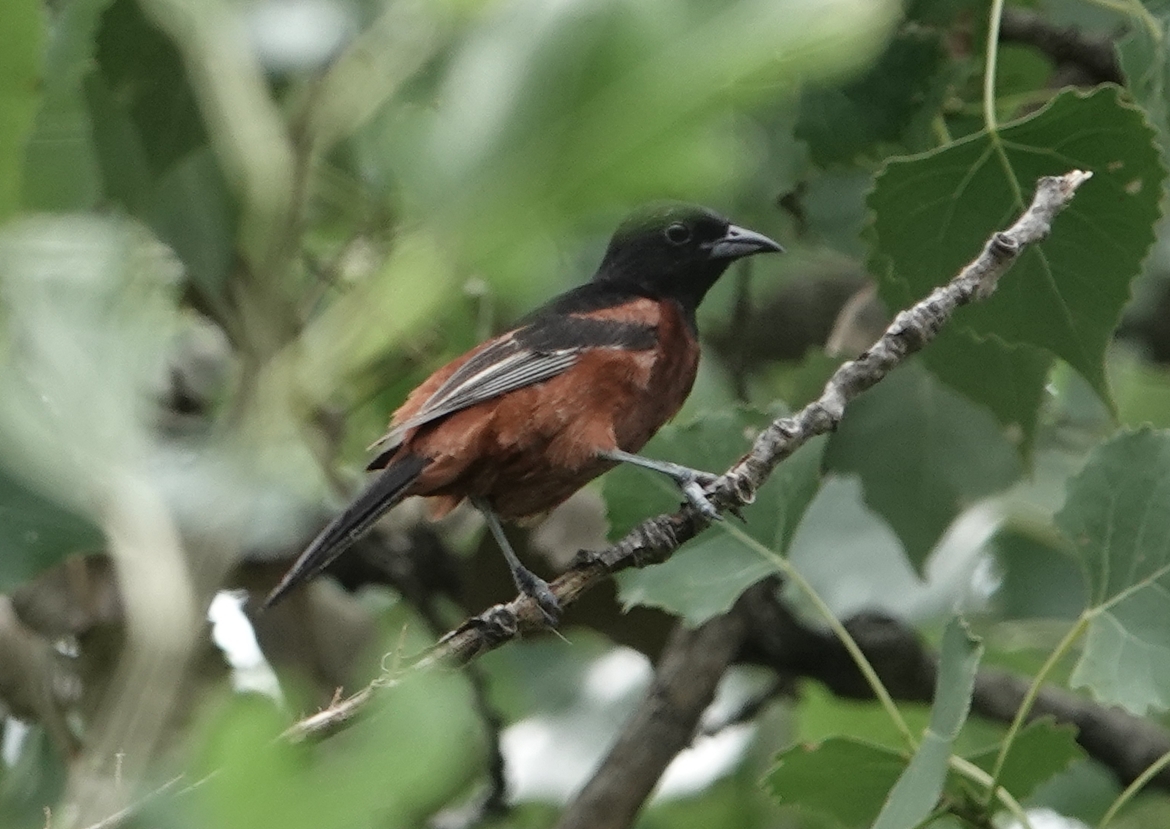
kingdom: Animalia
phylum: Chordata
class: Aves
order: Passeriformes
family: Icteridae
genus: Icterus
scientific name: Icterus spurius
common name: Orchard oriole
